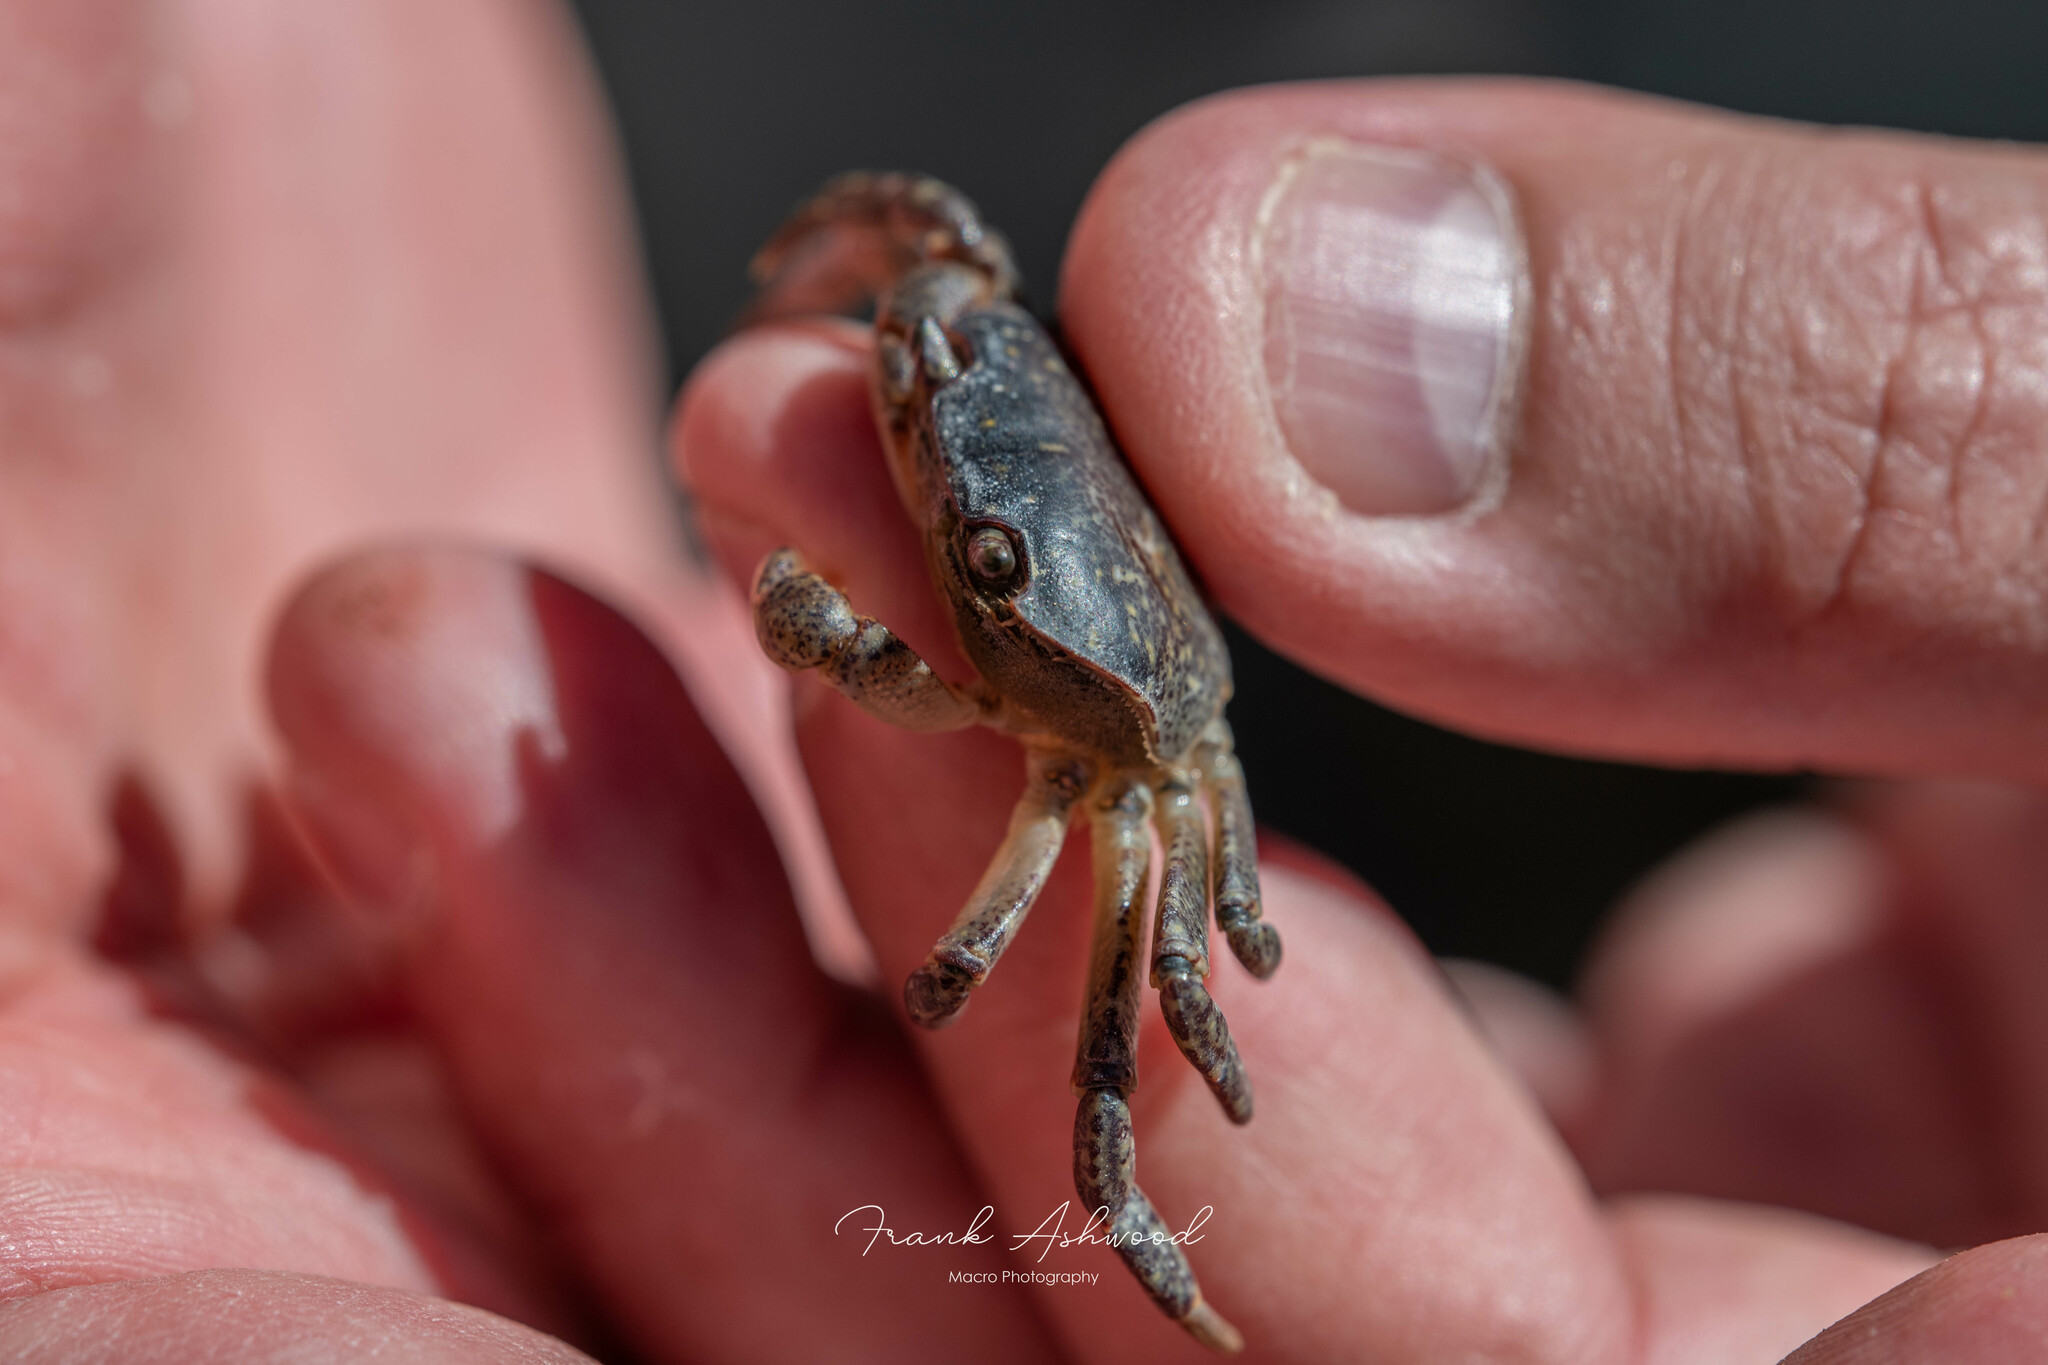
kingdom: Animalia
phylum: Arthropoda
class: Malacostraca
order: Decapoda
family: Varunidae
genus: Cyclograpsus
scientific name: Cyclograpsus lavauxi
